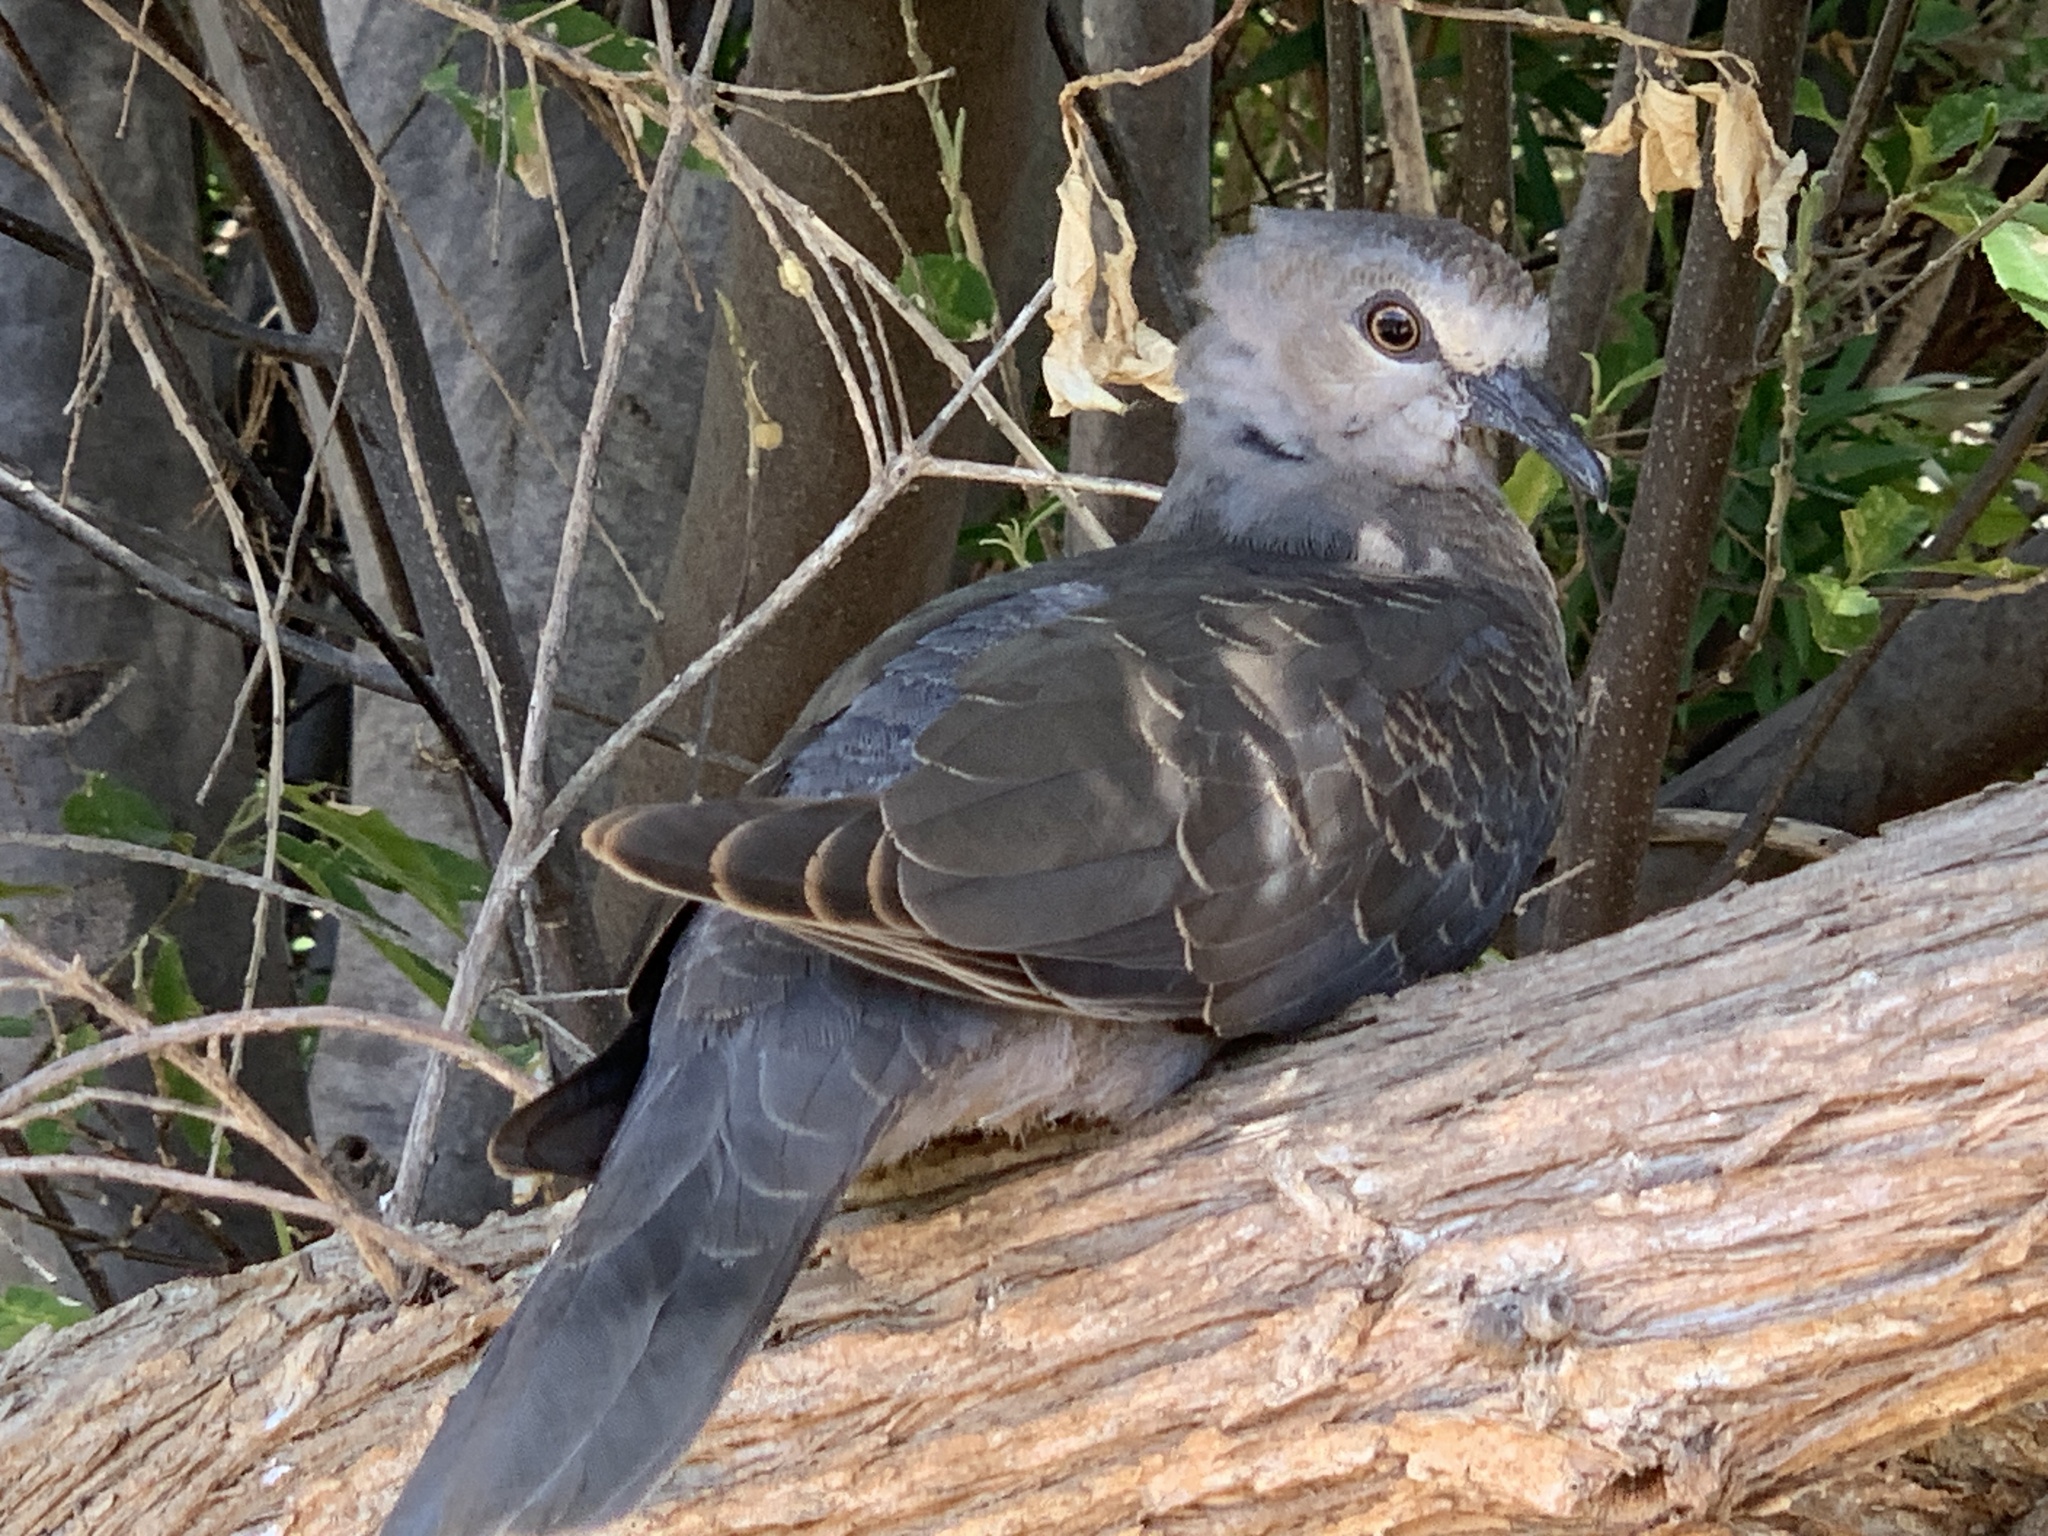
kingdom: Animalia
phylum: Chordata
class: Aves
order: Columbiformes
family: Columbidae
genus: Streptopelia
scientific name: Streptopelia semitorquata
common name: Red-eyed dove
